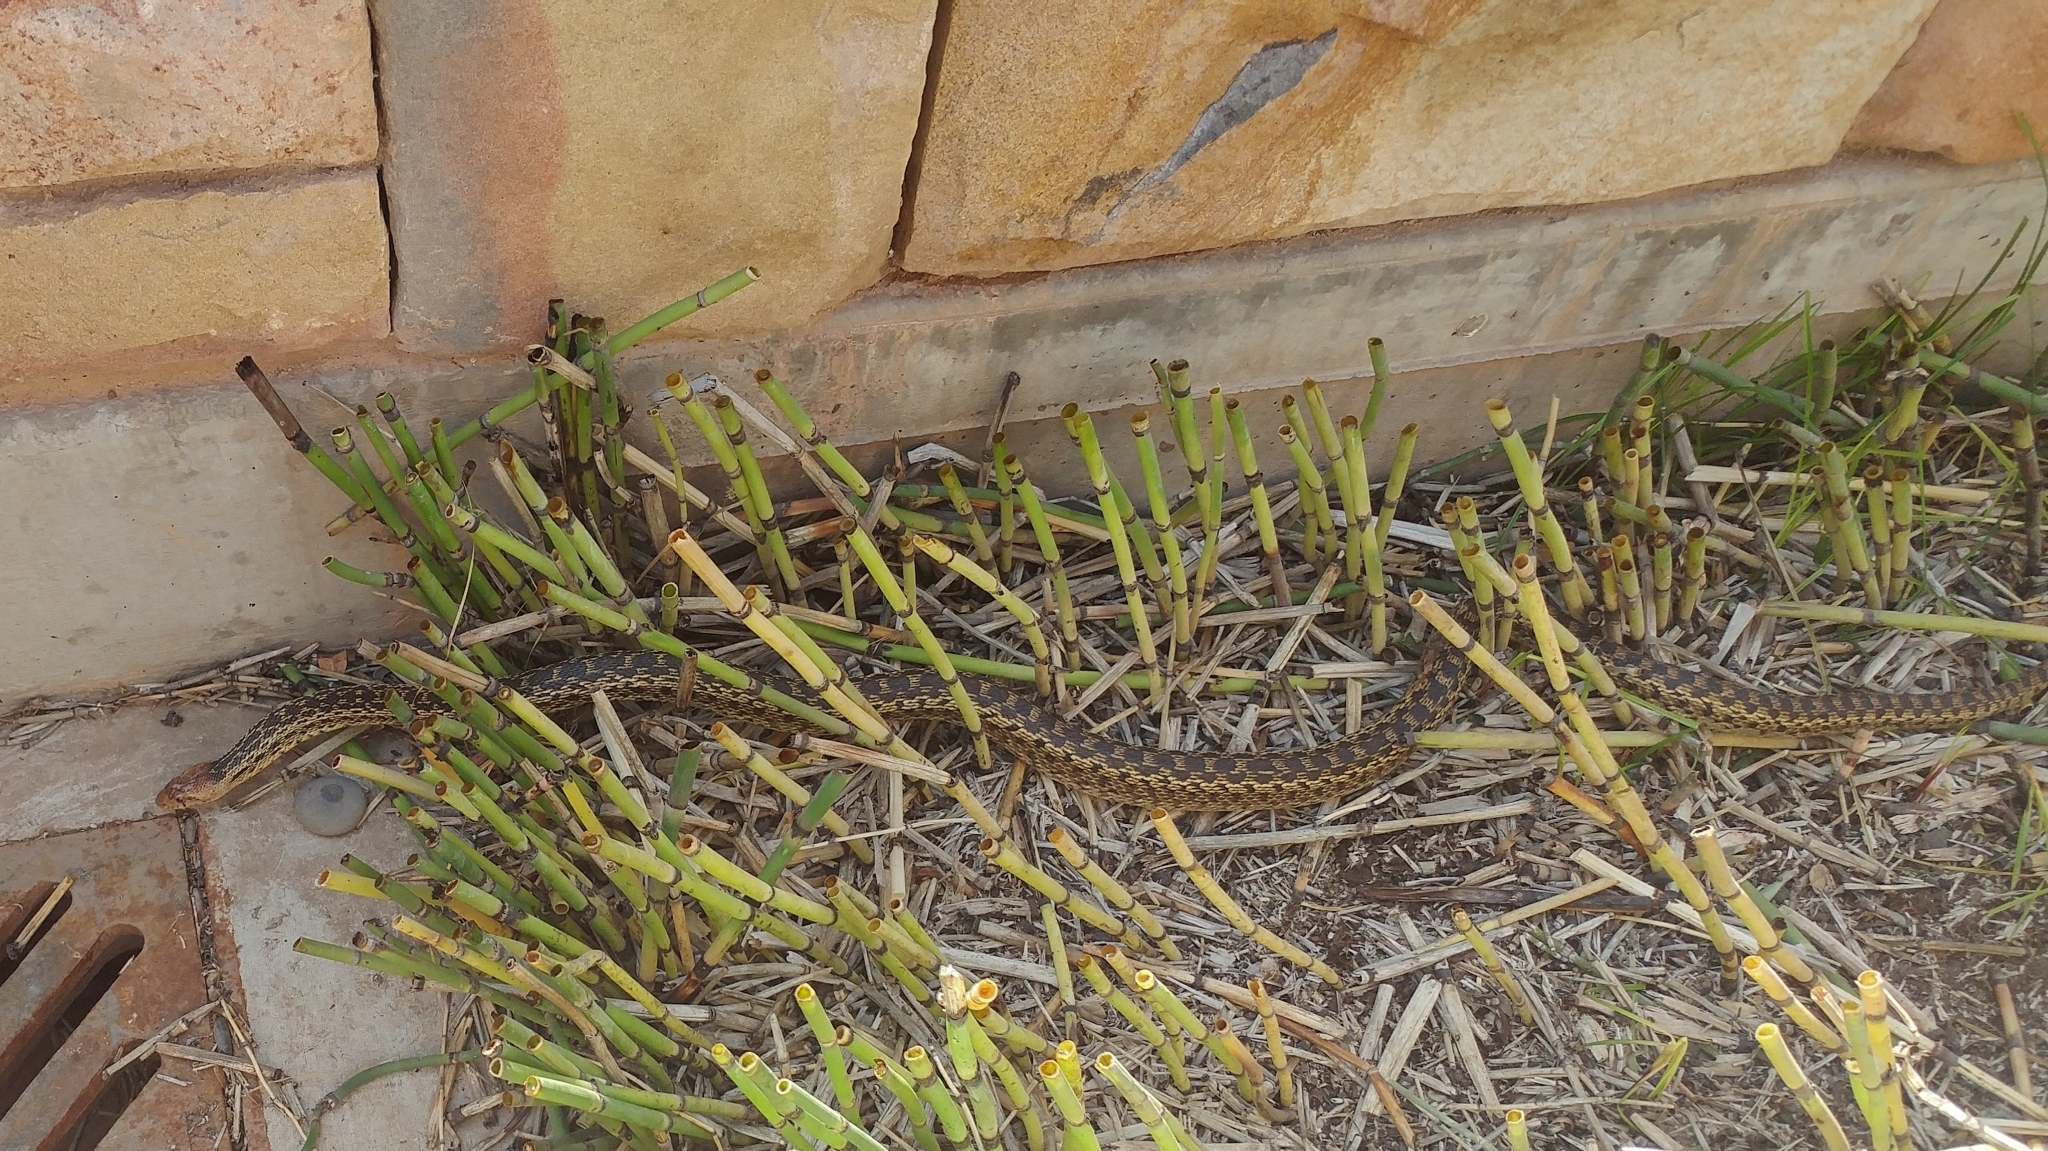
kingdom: Animalia
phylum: Chordata
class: Squamata
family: Colubridae
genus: Pituophis
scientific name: Pituophis catenifer
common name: Gopher snake
